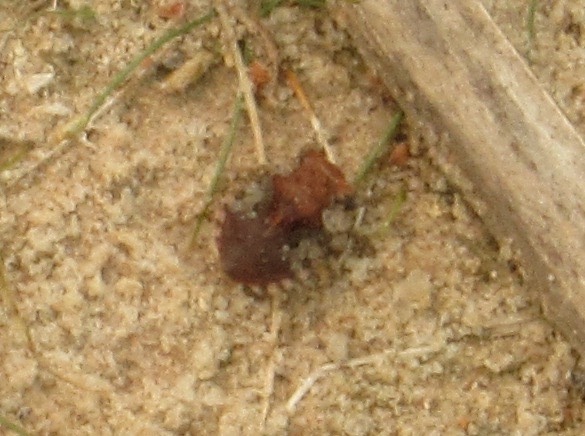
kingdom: Animalia
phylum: Arthropoda
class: Insecta
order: Hemiptera
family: Gelastocoridae
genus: Gelastocoris
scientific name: Gelastocoris oculatus
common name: Toad bug
